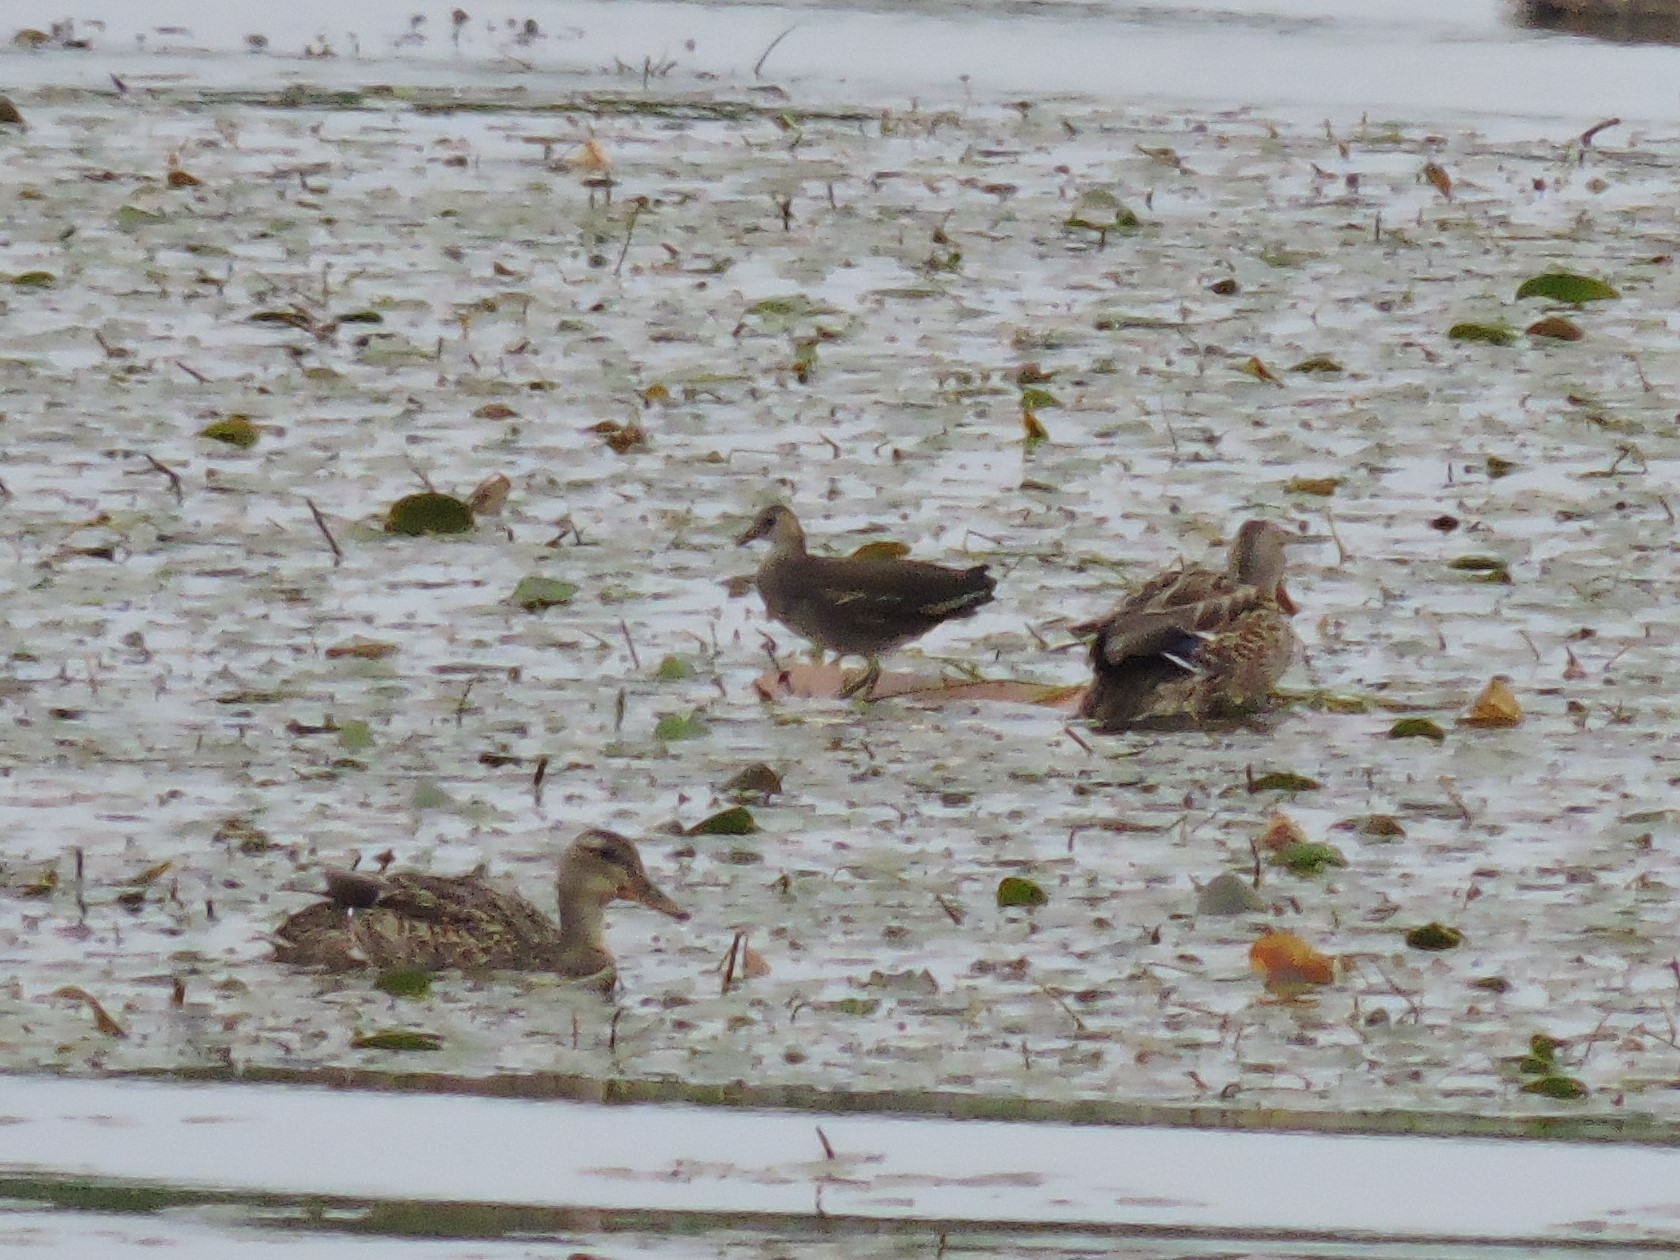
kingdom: Animalia
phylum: Chordata
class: Aves
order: Gruiformes
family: Rallidae
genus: Gallinula
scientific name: Gallinula chloropus
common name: Common moorhen
